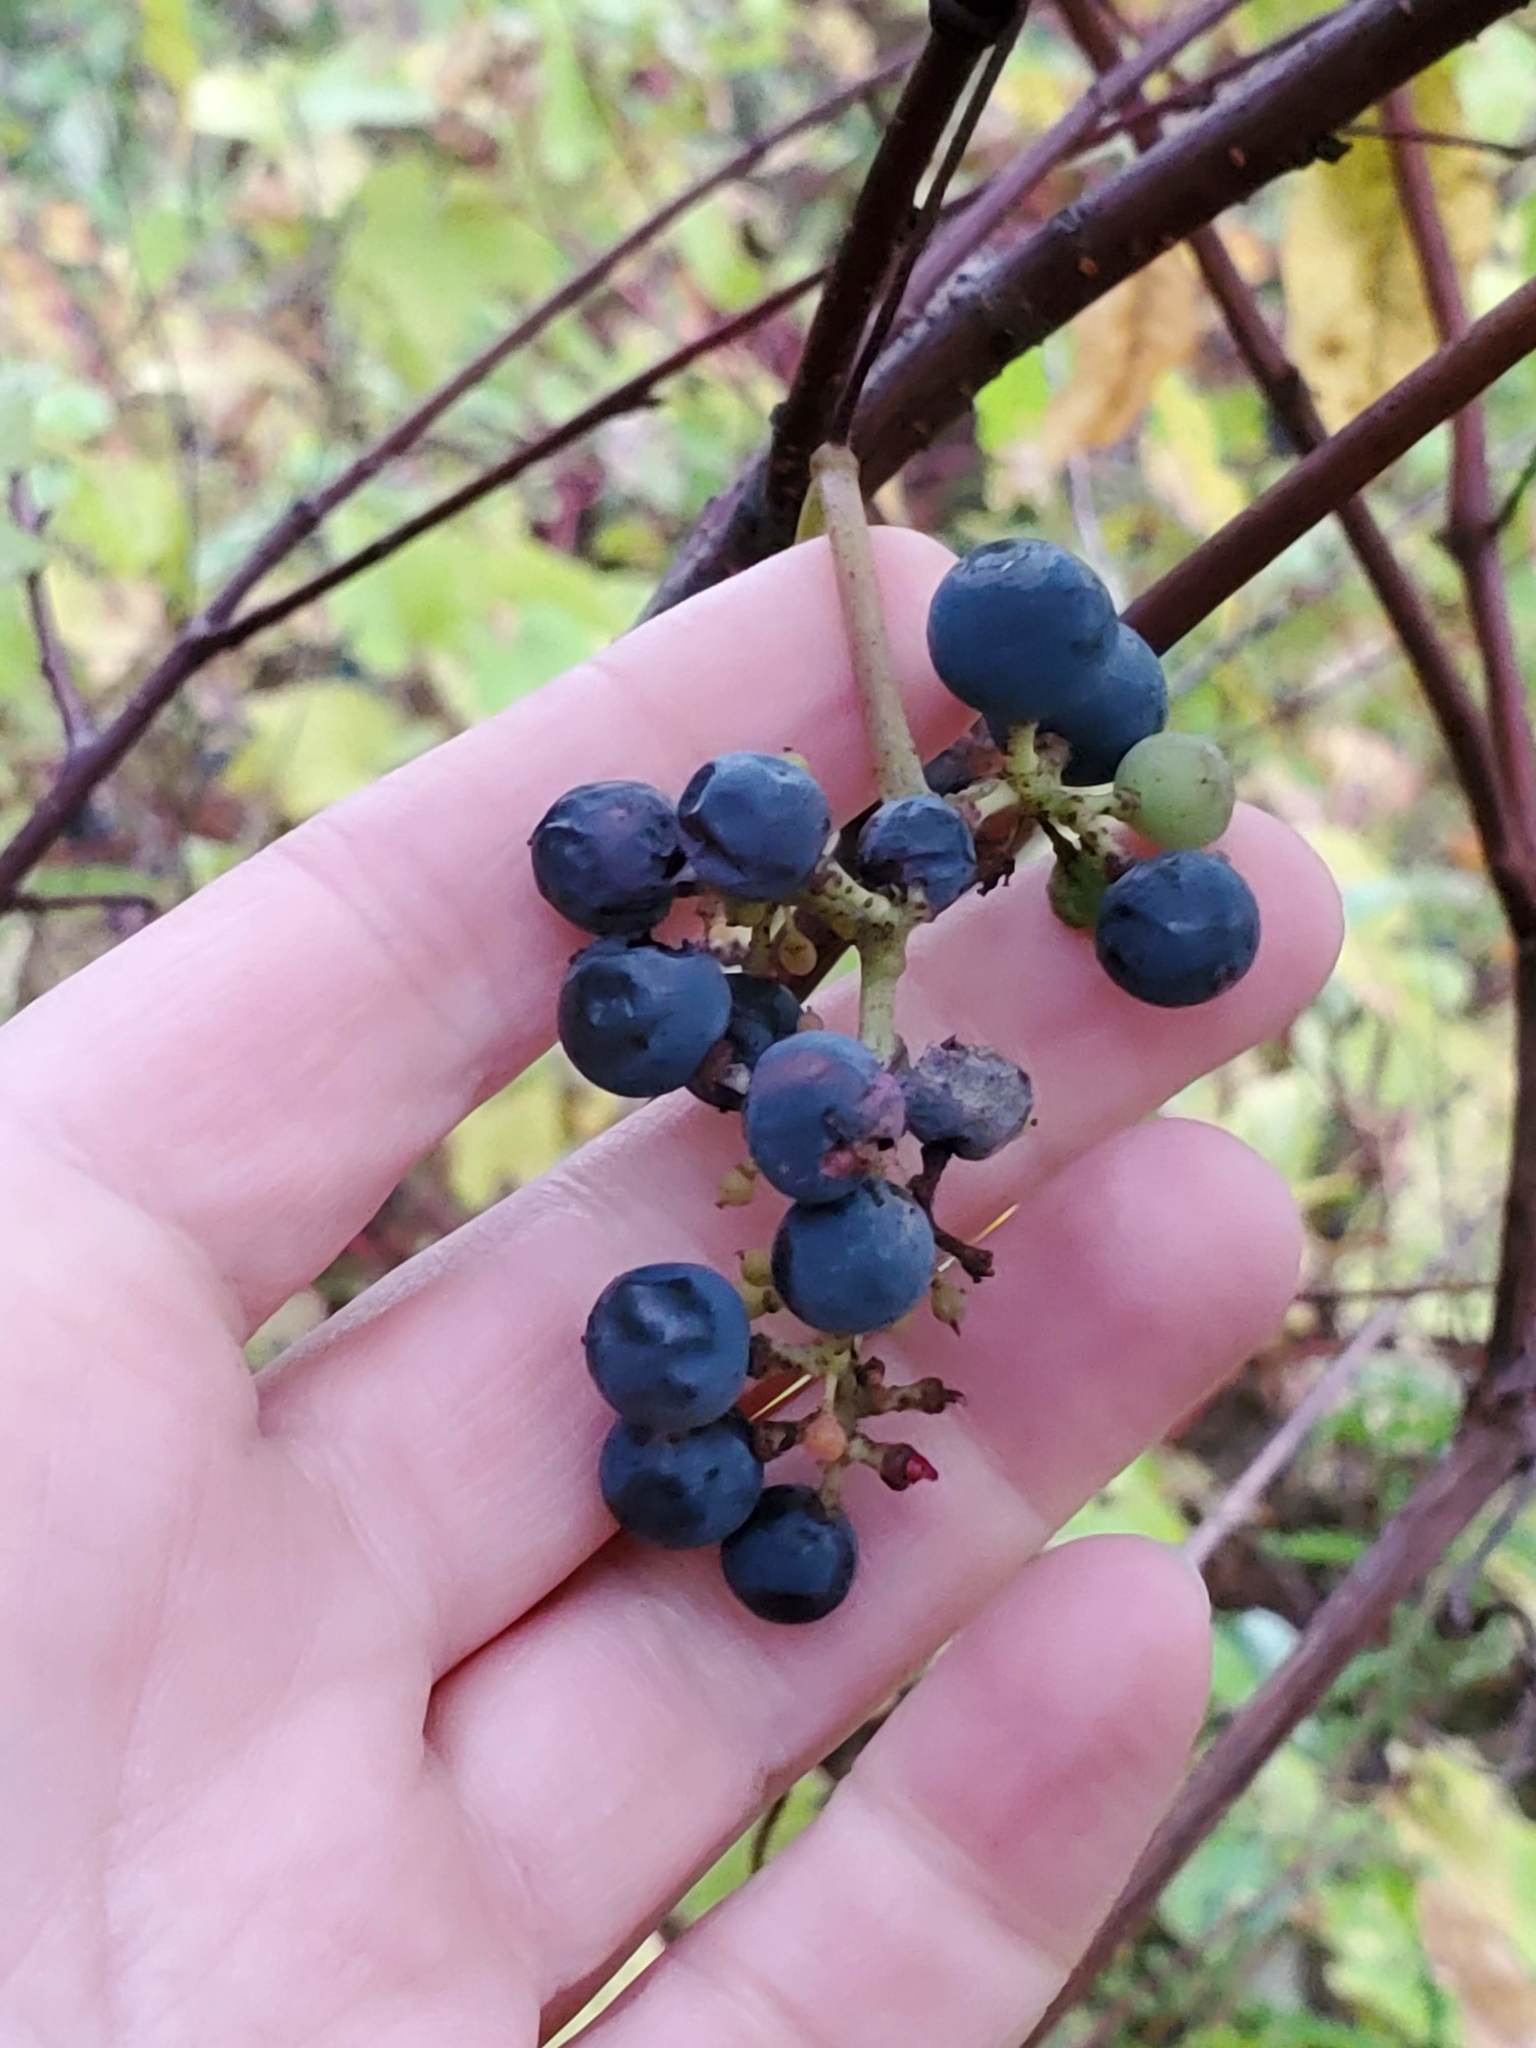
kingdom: Plantae
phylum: Tracheophyta
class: Magnoliopsida
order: Vitales
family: Vitaceae
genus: Vitis
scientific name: Vitis riparia
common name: Frost grape
